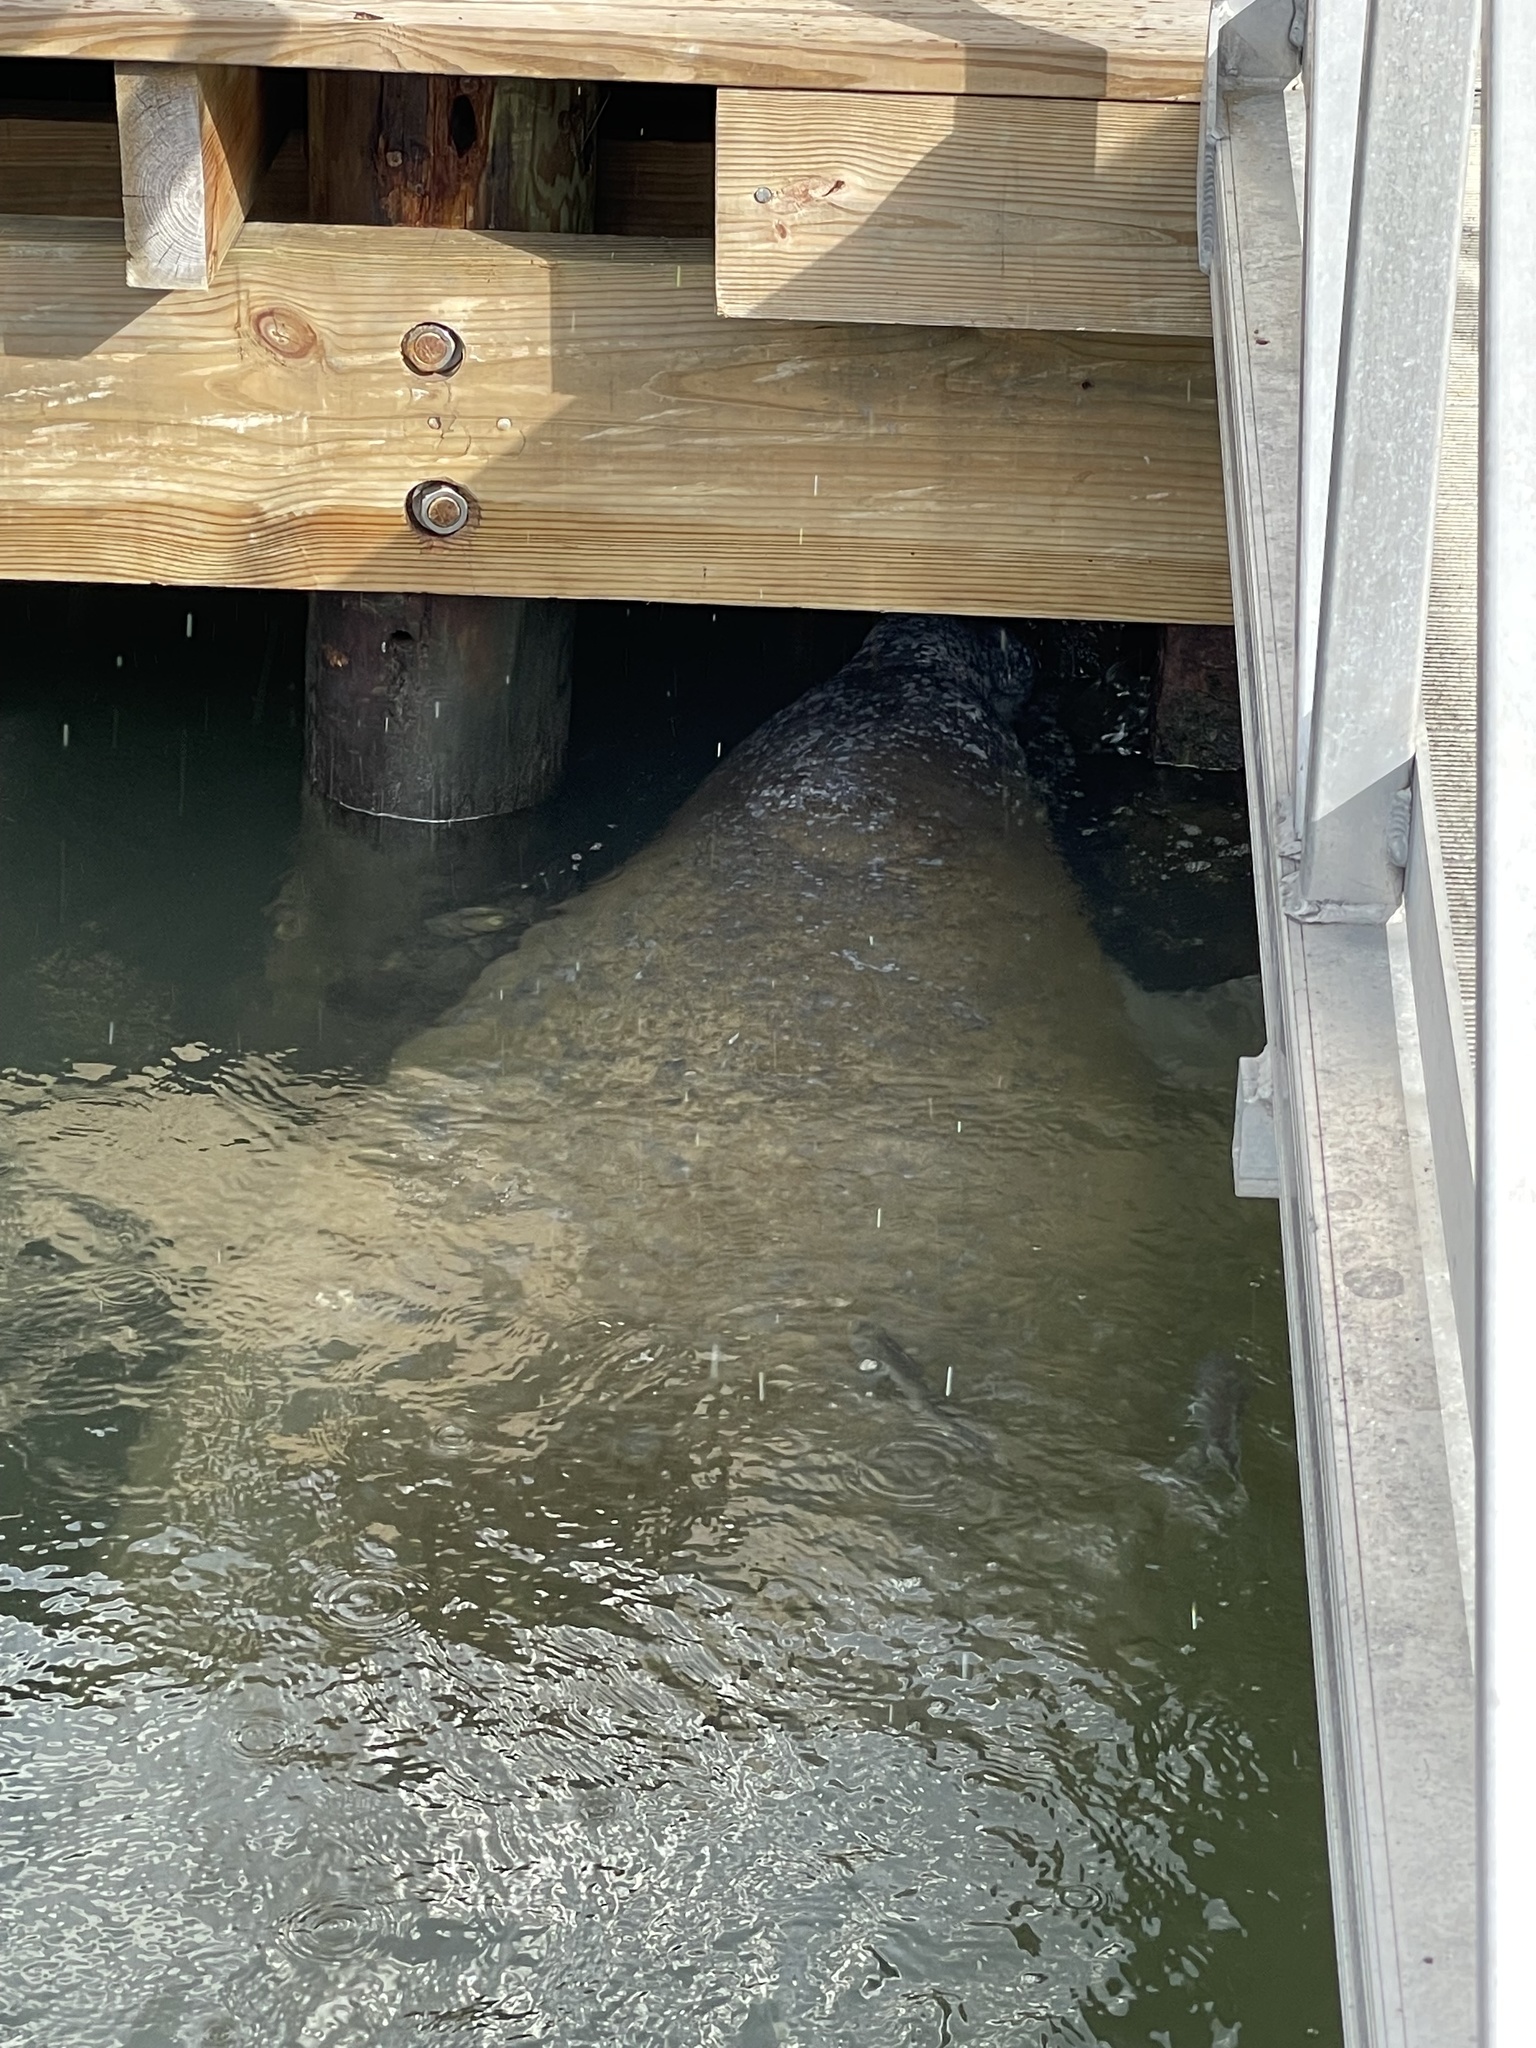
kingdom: Animalia
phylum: Chordata
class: Mammalia
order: Sirenia
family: Trichechidae
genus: Trichechus
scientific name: Trichechus manatus
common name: West indian manatee
